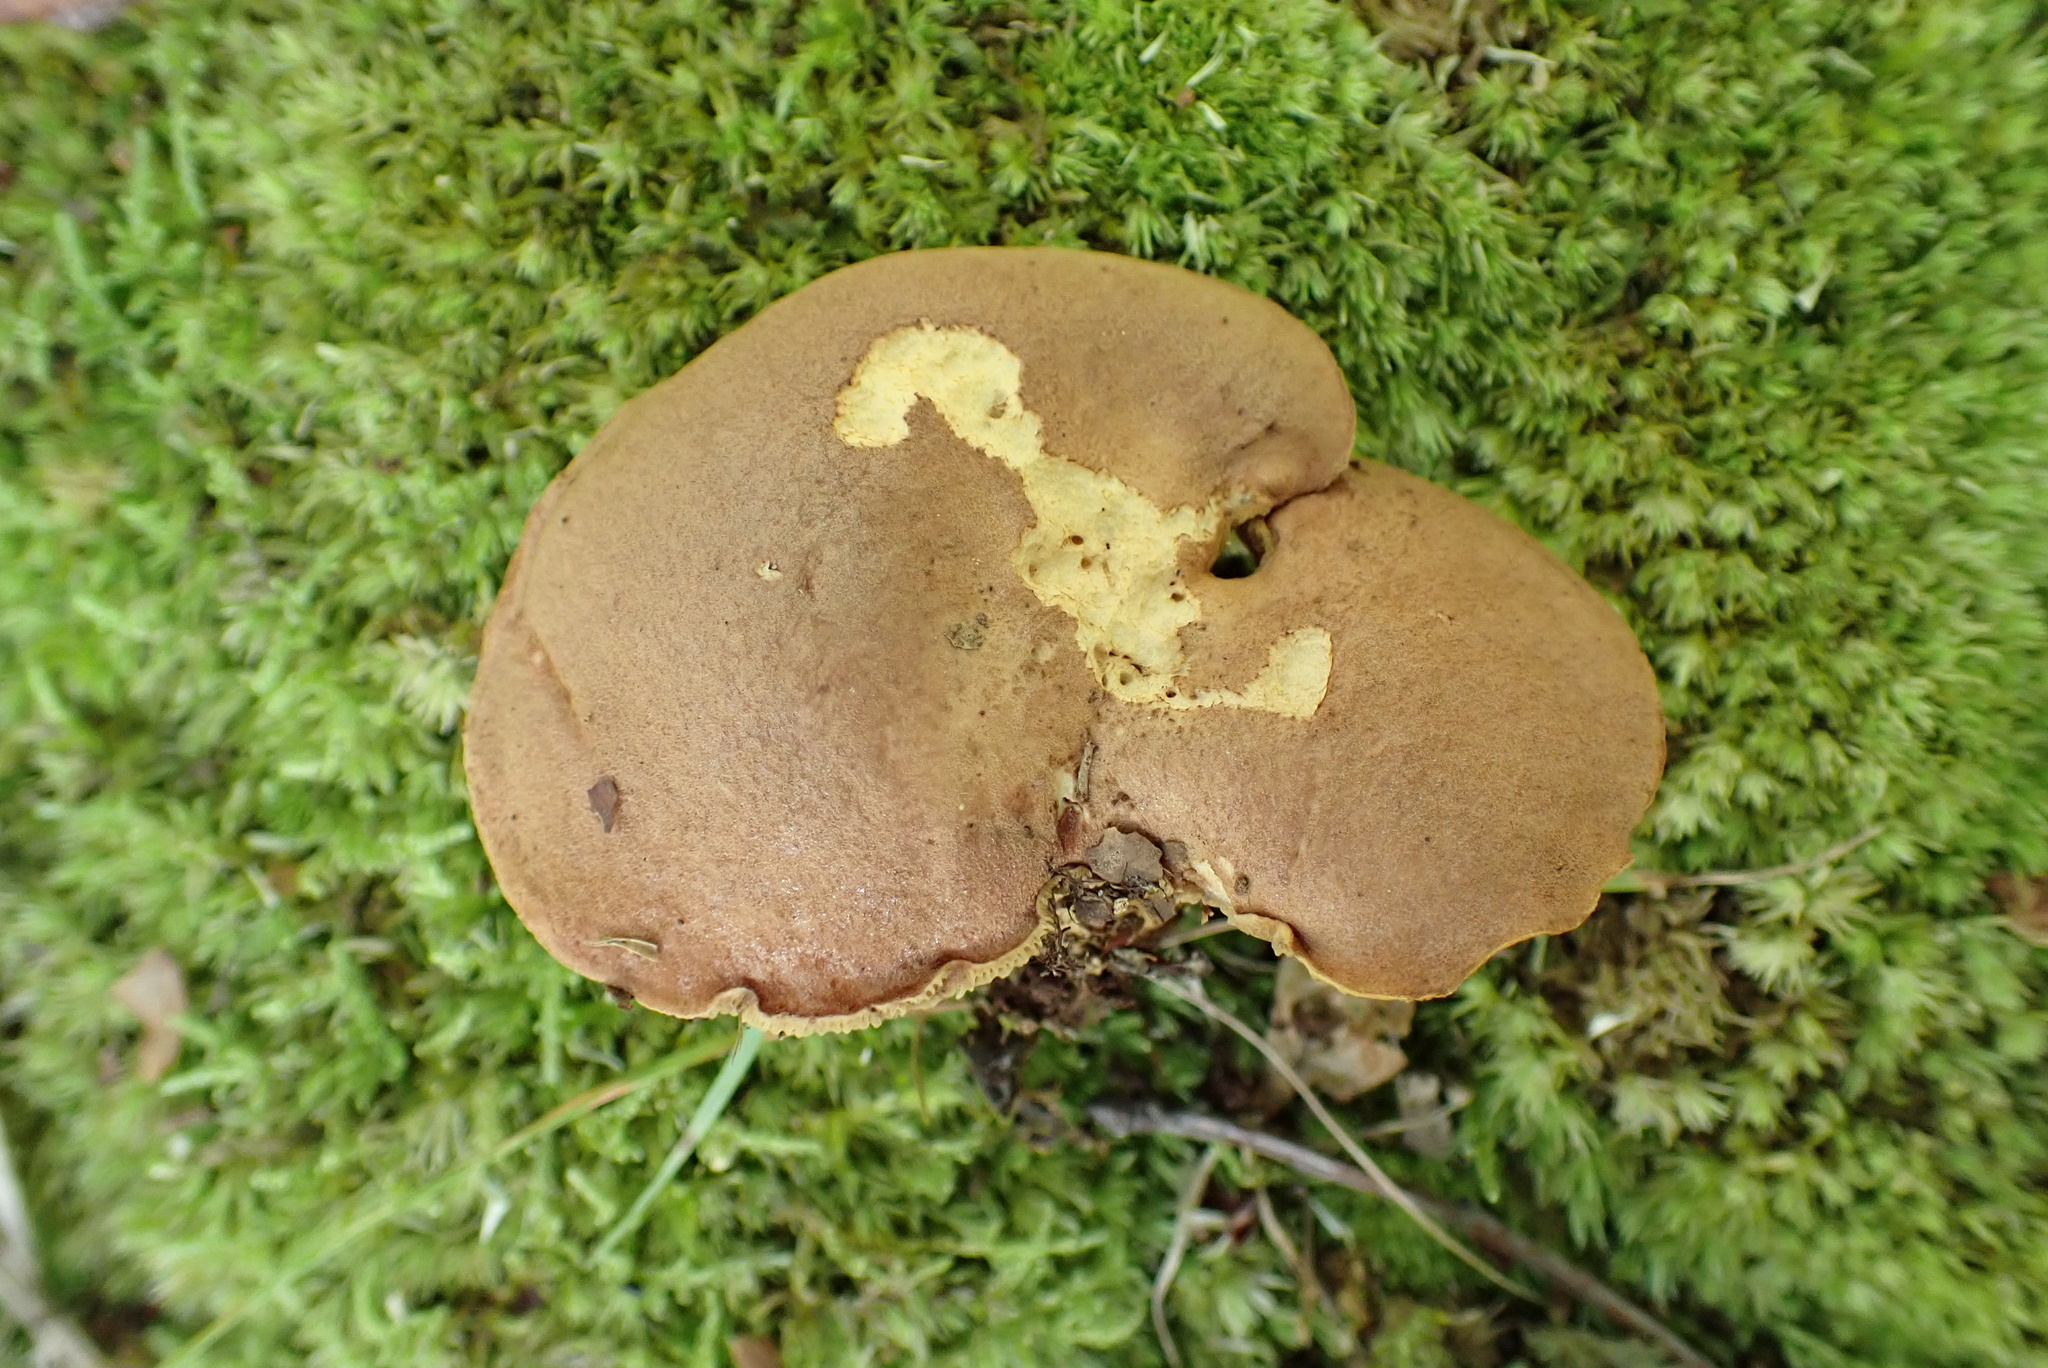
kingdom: Fungi
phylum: Basidiomycota
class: Agaricomycetes
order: Boletales
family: Boletaceae
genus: Bothia
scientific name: Bothia castanella
